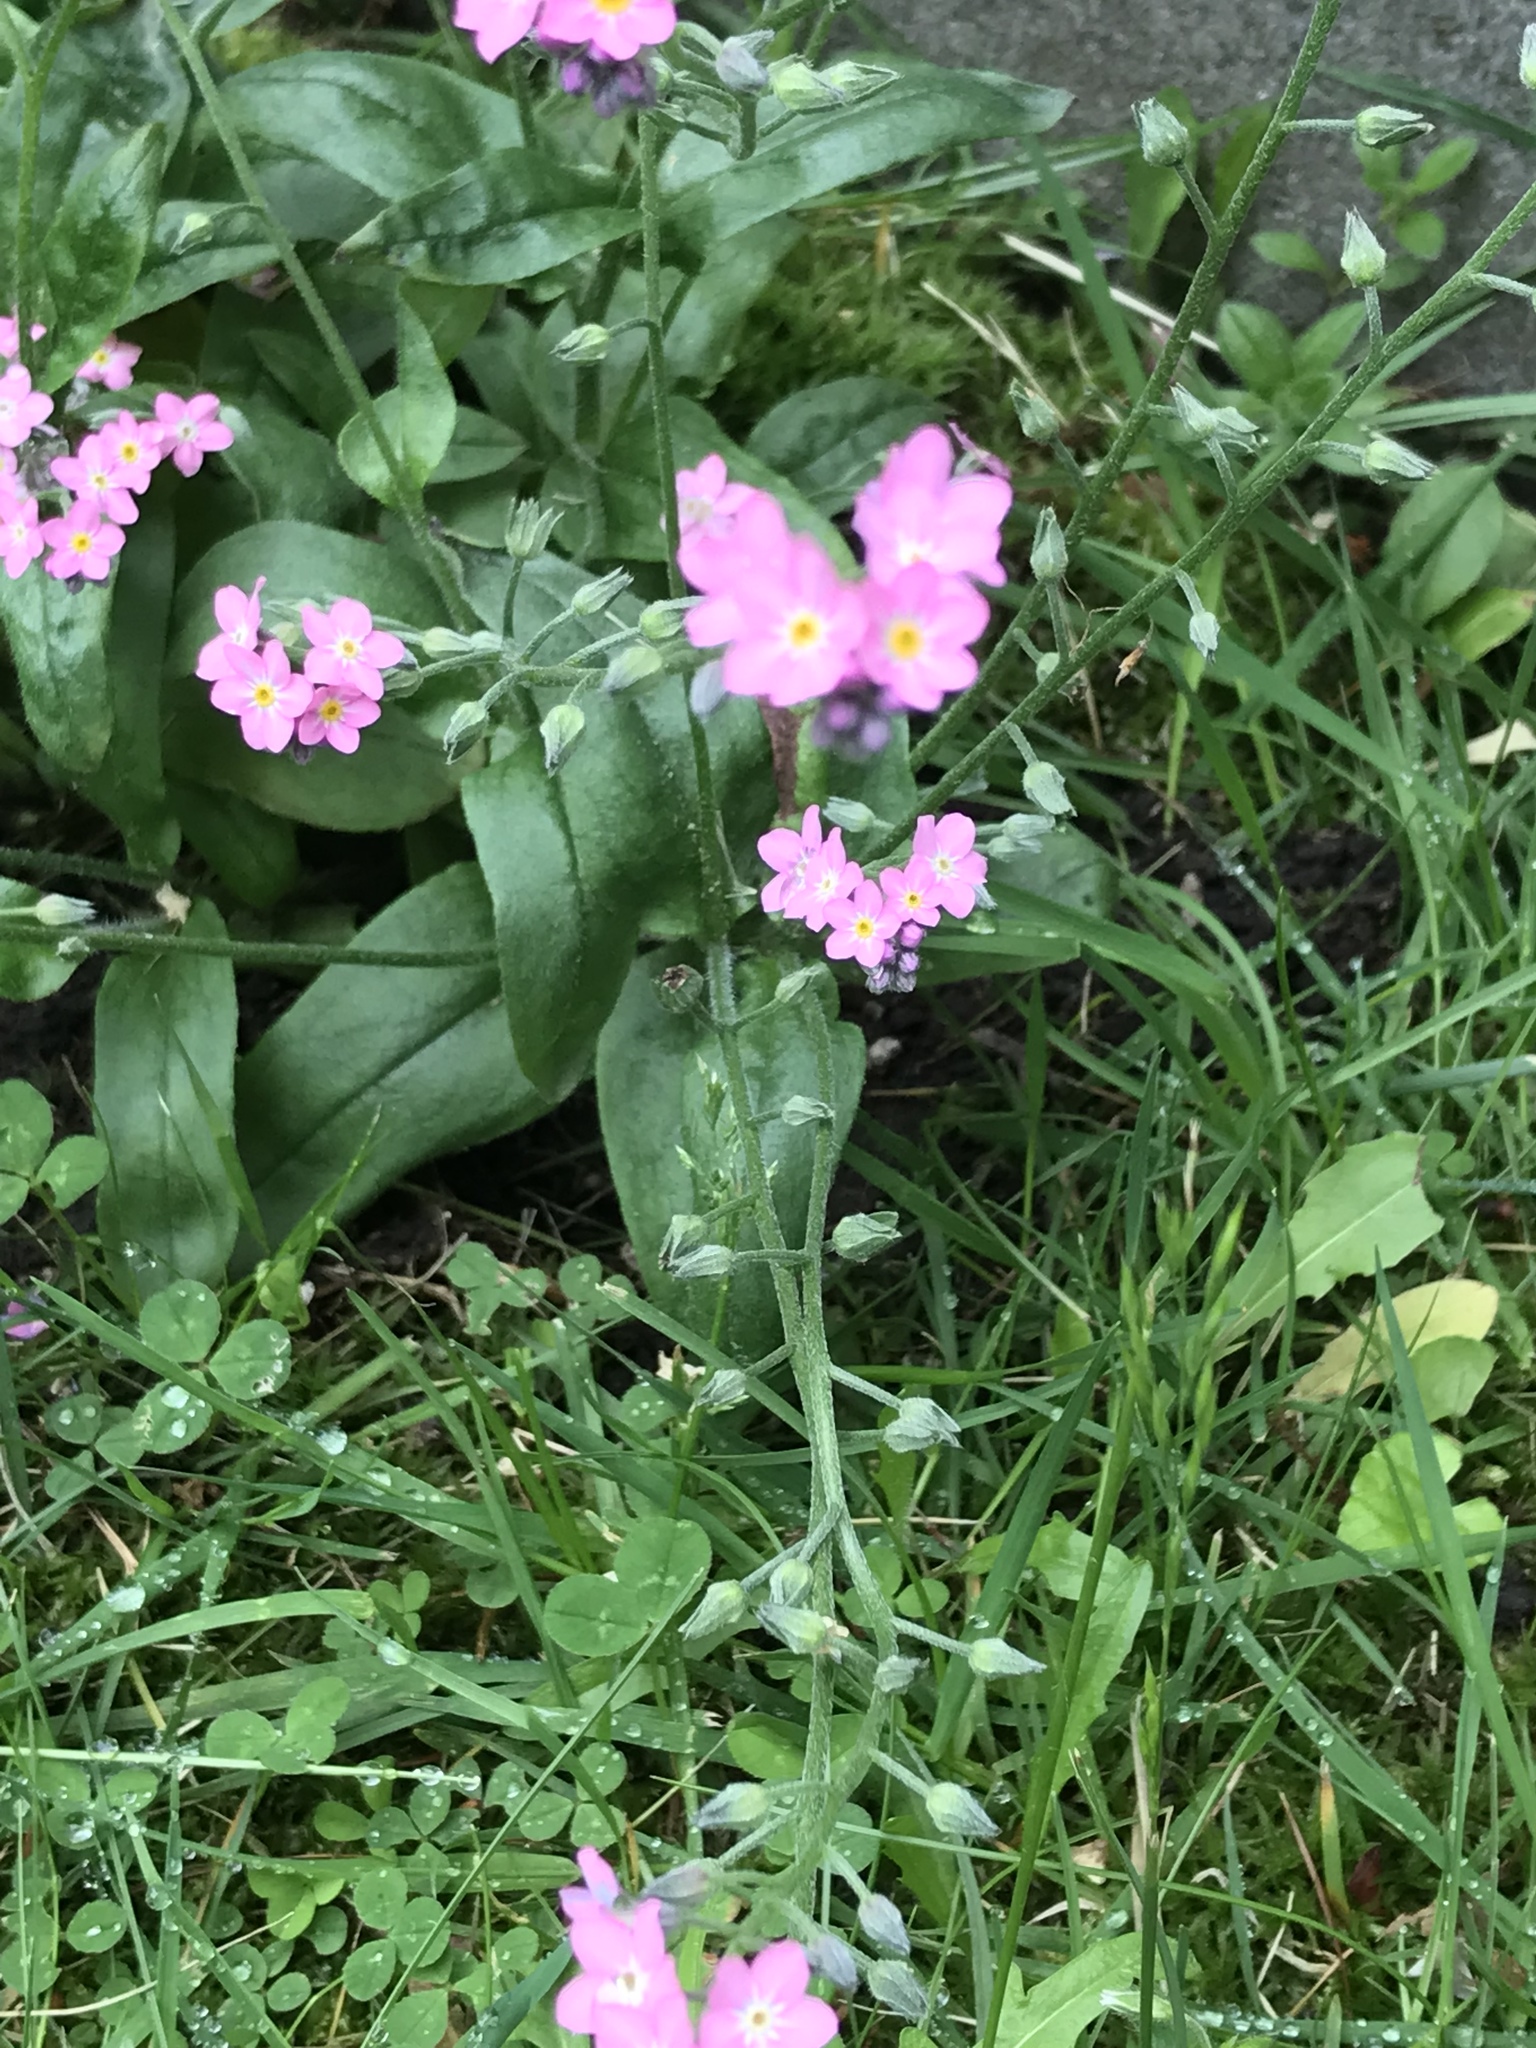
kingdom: Plantae
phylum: Tracheophyta
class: Magnoliopsida
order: Boraginales
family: Boraginaceae
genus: Myosotis
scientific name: Myosotis sylvatica
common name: Wood forget-me-not
